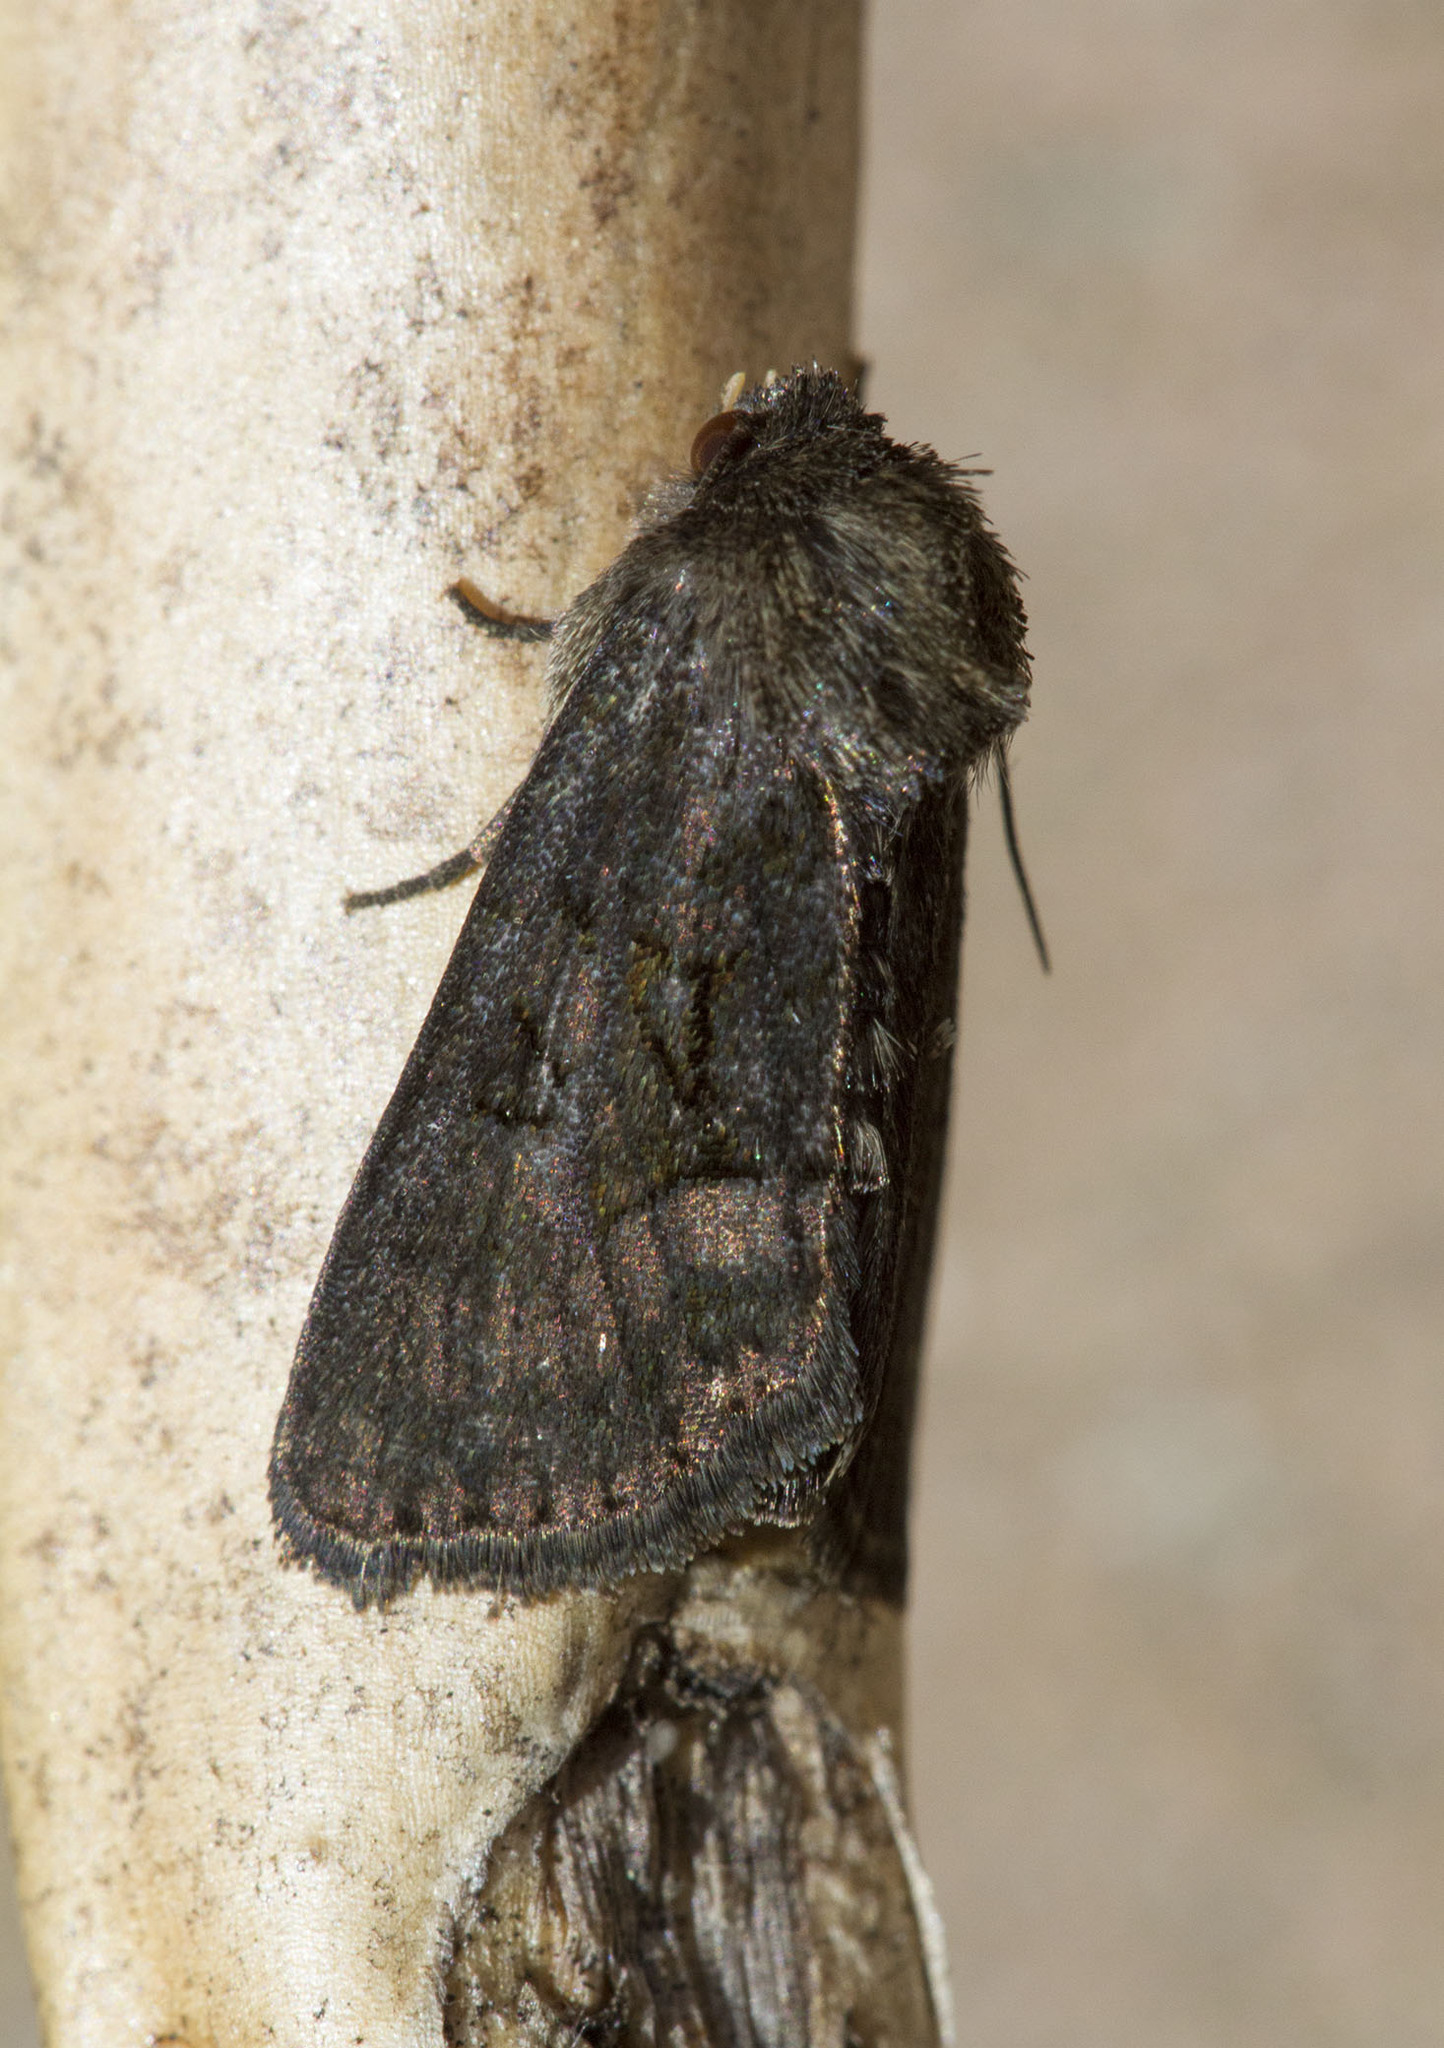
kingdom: Animalia
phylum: Arthropoda
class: Insecta
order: Lepidoptera
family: Noctuidae
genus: Oligia
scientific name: Oligia latruncula
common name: Tawny marbled minor
